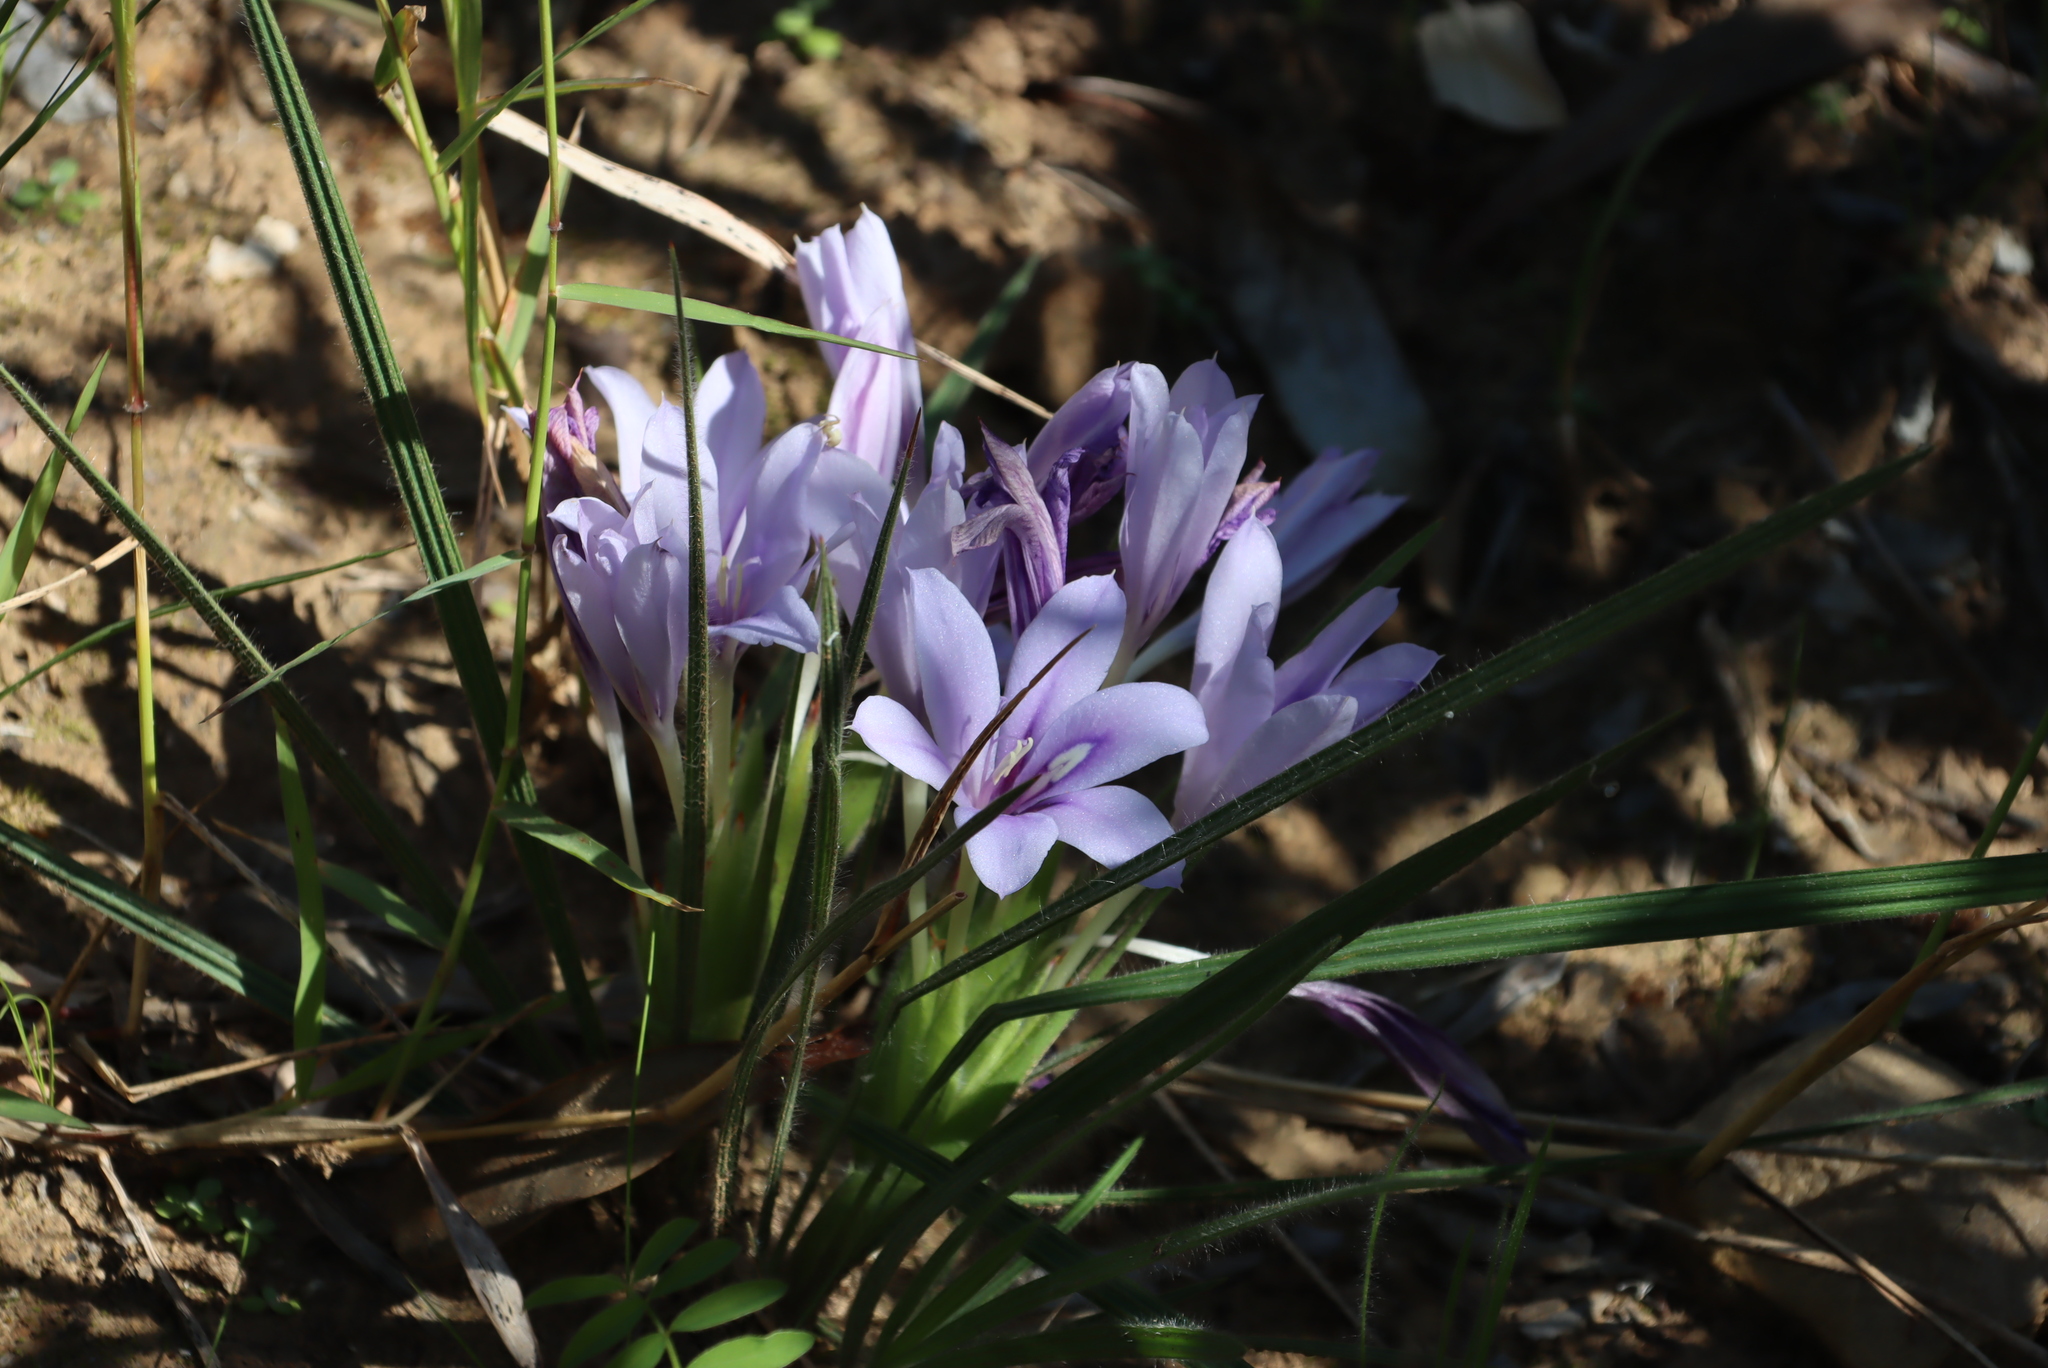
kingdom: Plantae
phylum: Tracheophyta
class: Liliopsida
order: Asparagales
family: Iridaceae
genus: Babiana
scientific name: Babiana sambucina
